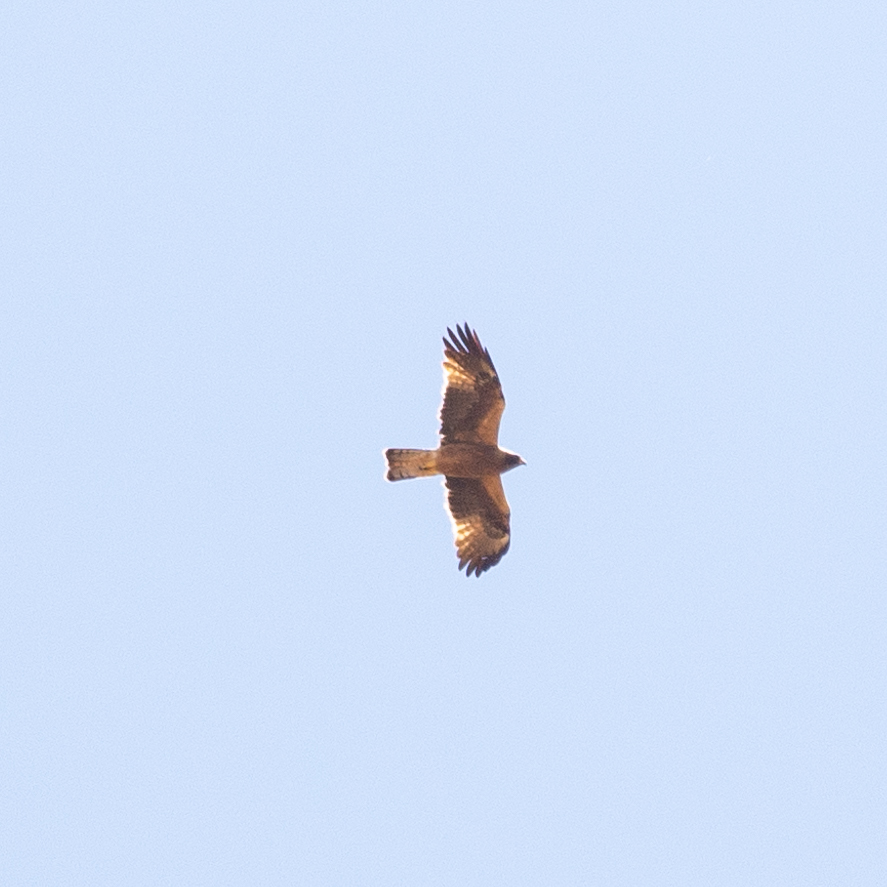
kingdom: Animalia
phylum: Chordata
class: Aves
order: Accipitriformes
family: Accipitridae
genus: Hieraaetus
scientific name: Hieraaetus pennatus
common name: Booted eagle
